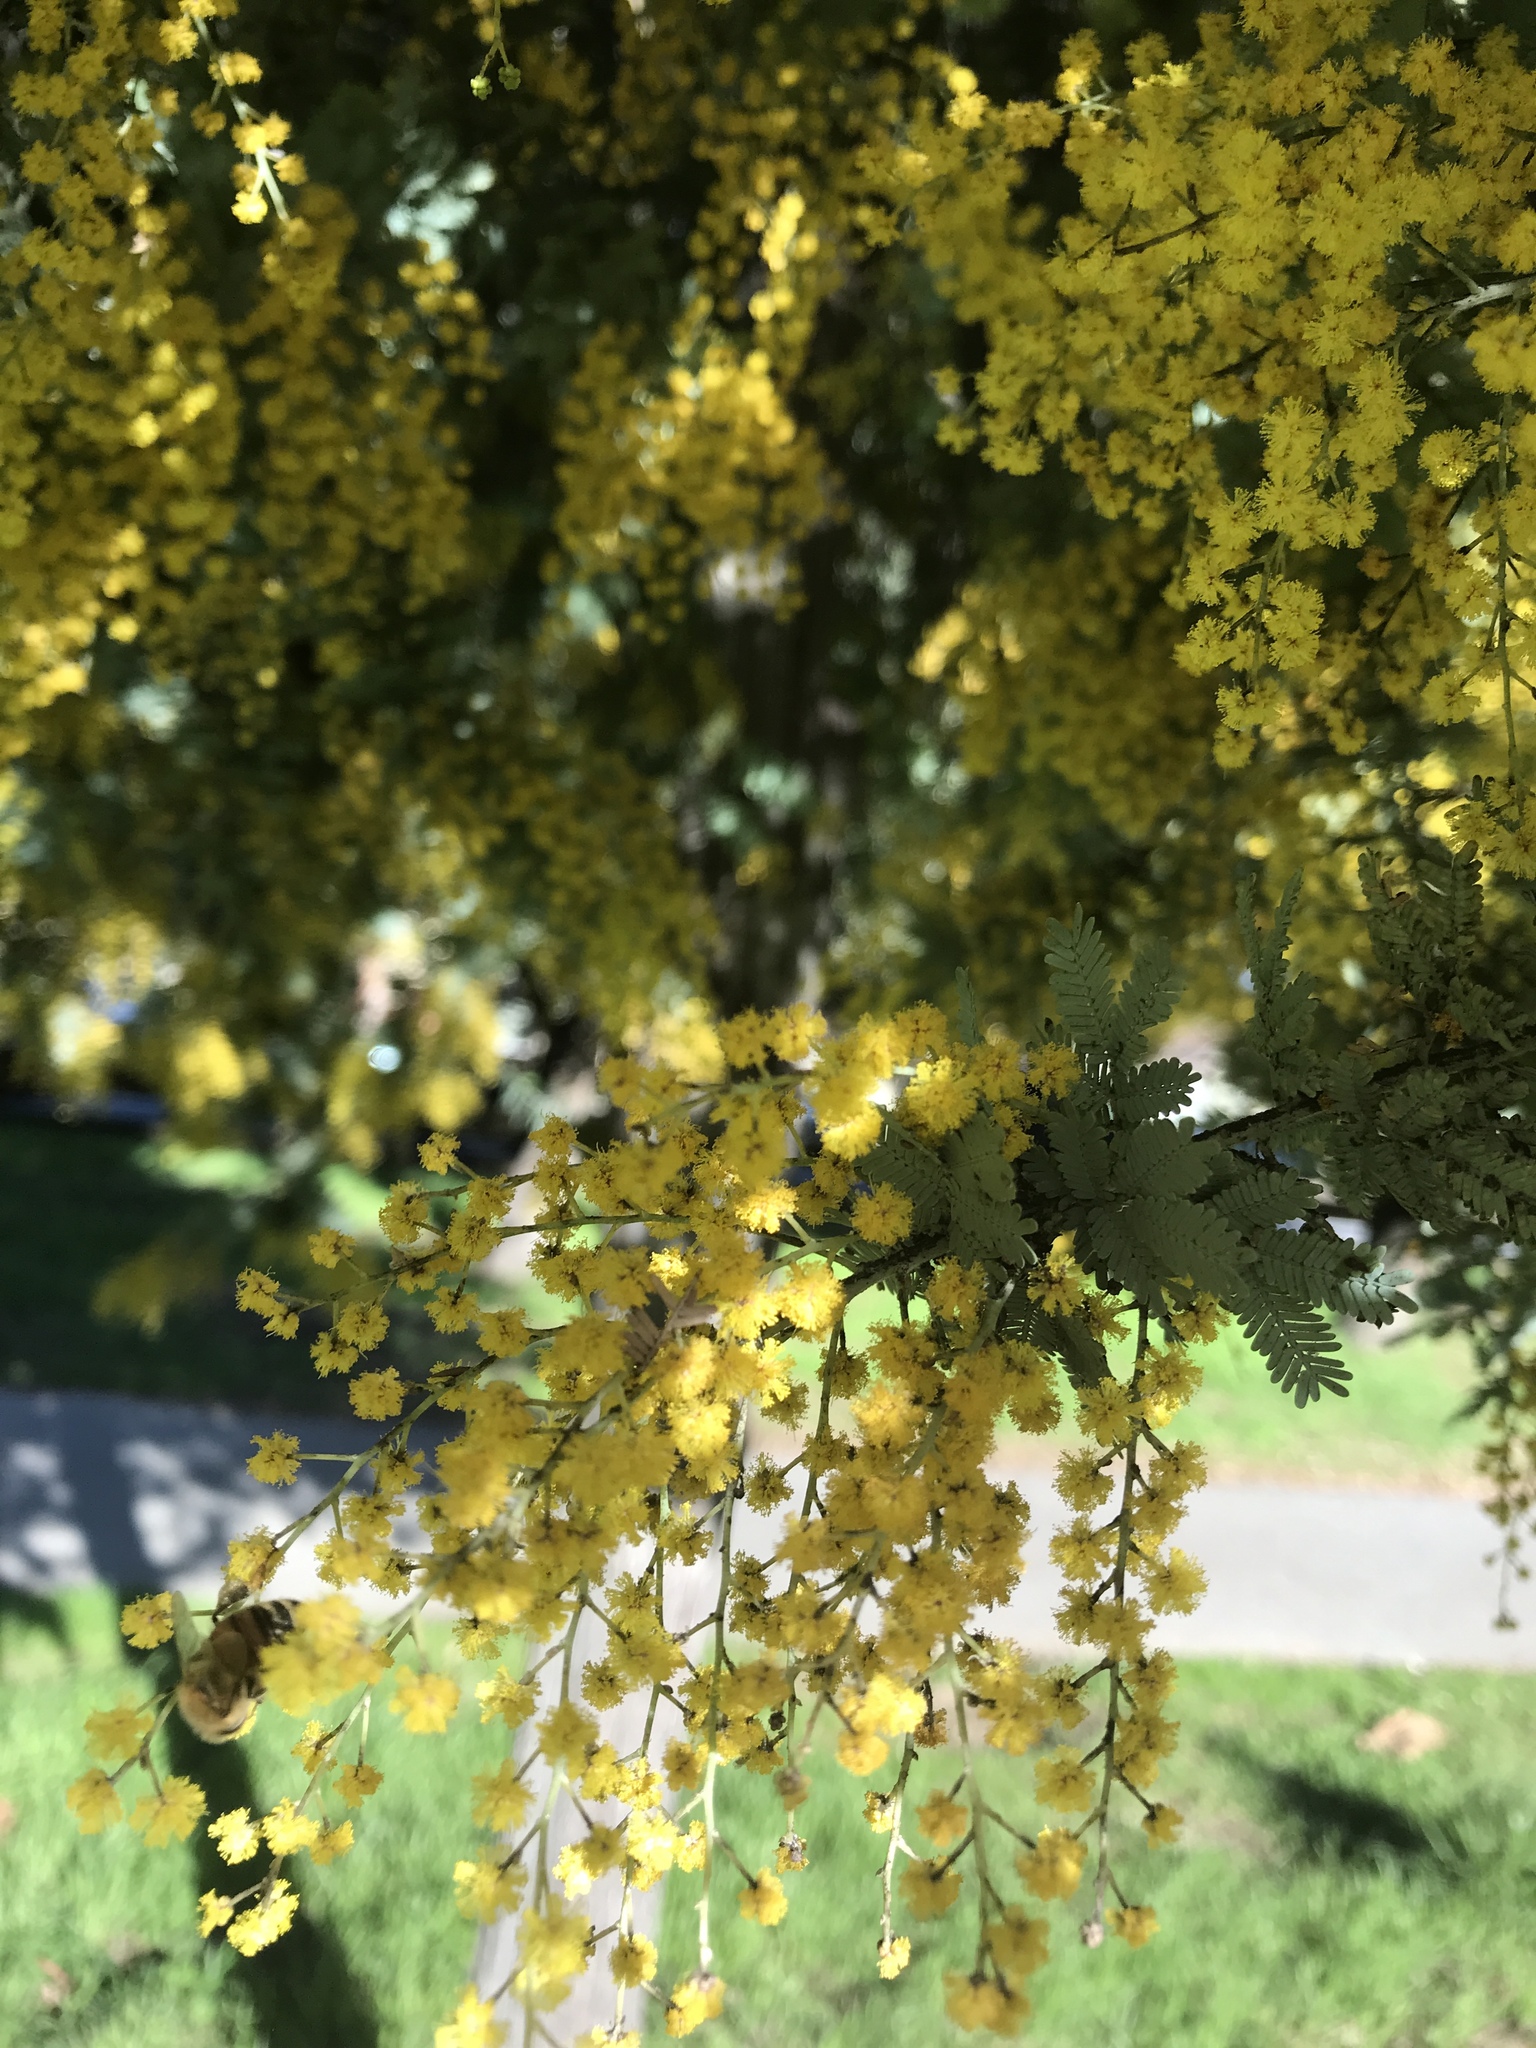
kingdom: Animalia
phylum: Arthropoda
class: Insecta
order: Hymenoptera
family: Apidae
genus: Apis
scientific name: Apis mellifera
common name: Honey bee
